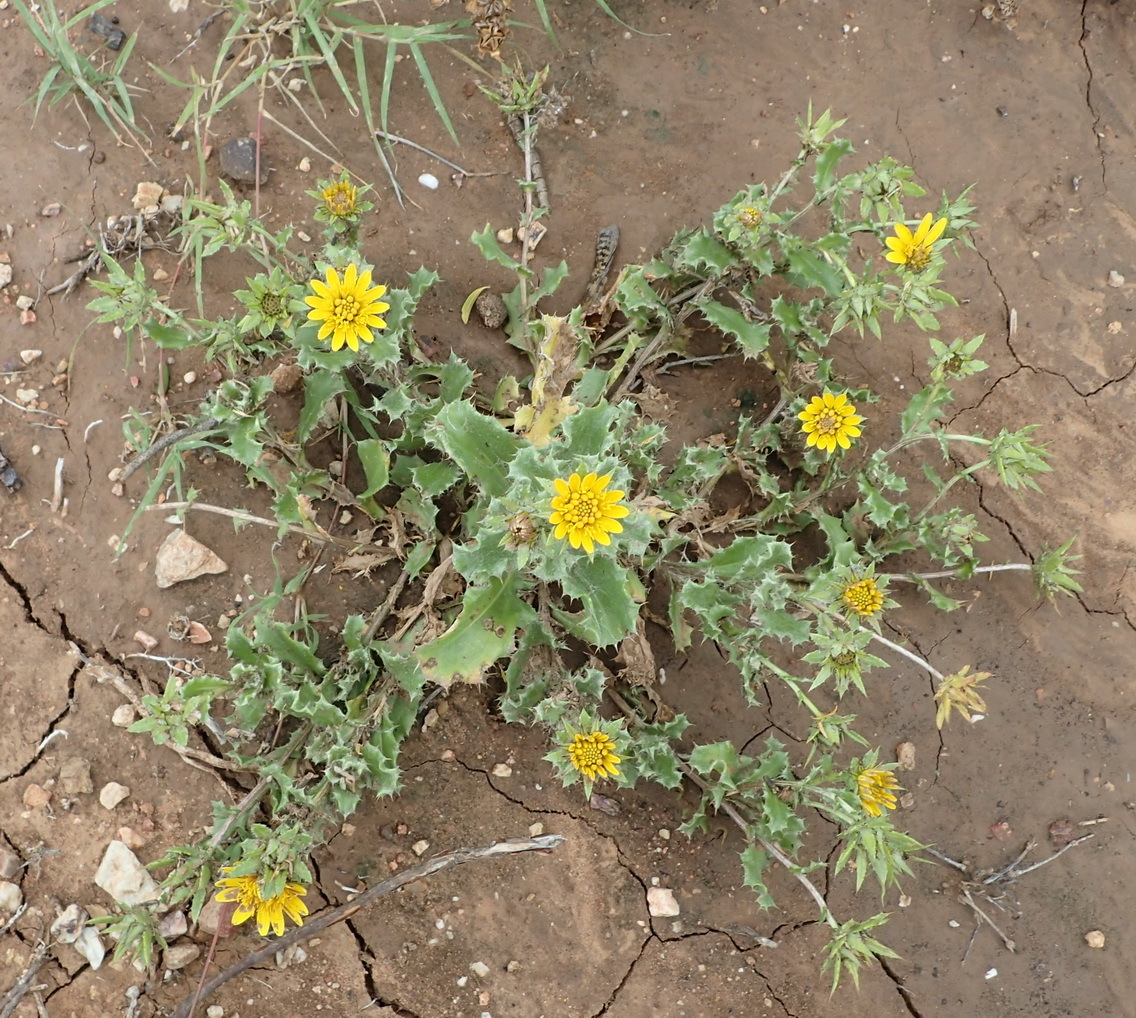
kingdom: Plantae
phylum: Tracheophyta
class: Magnoliopsida
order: Asterales
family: Asteraceae
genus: Cuspidia
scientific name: Cuspidia cernua
